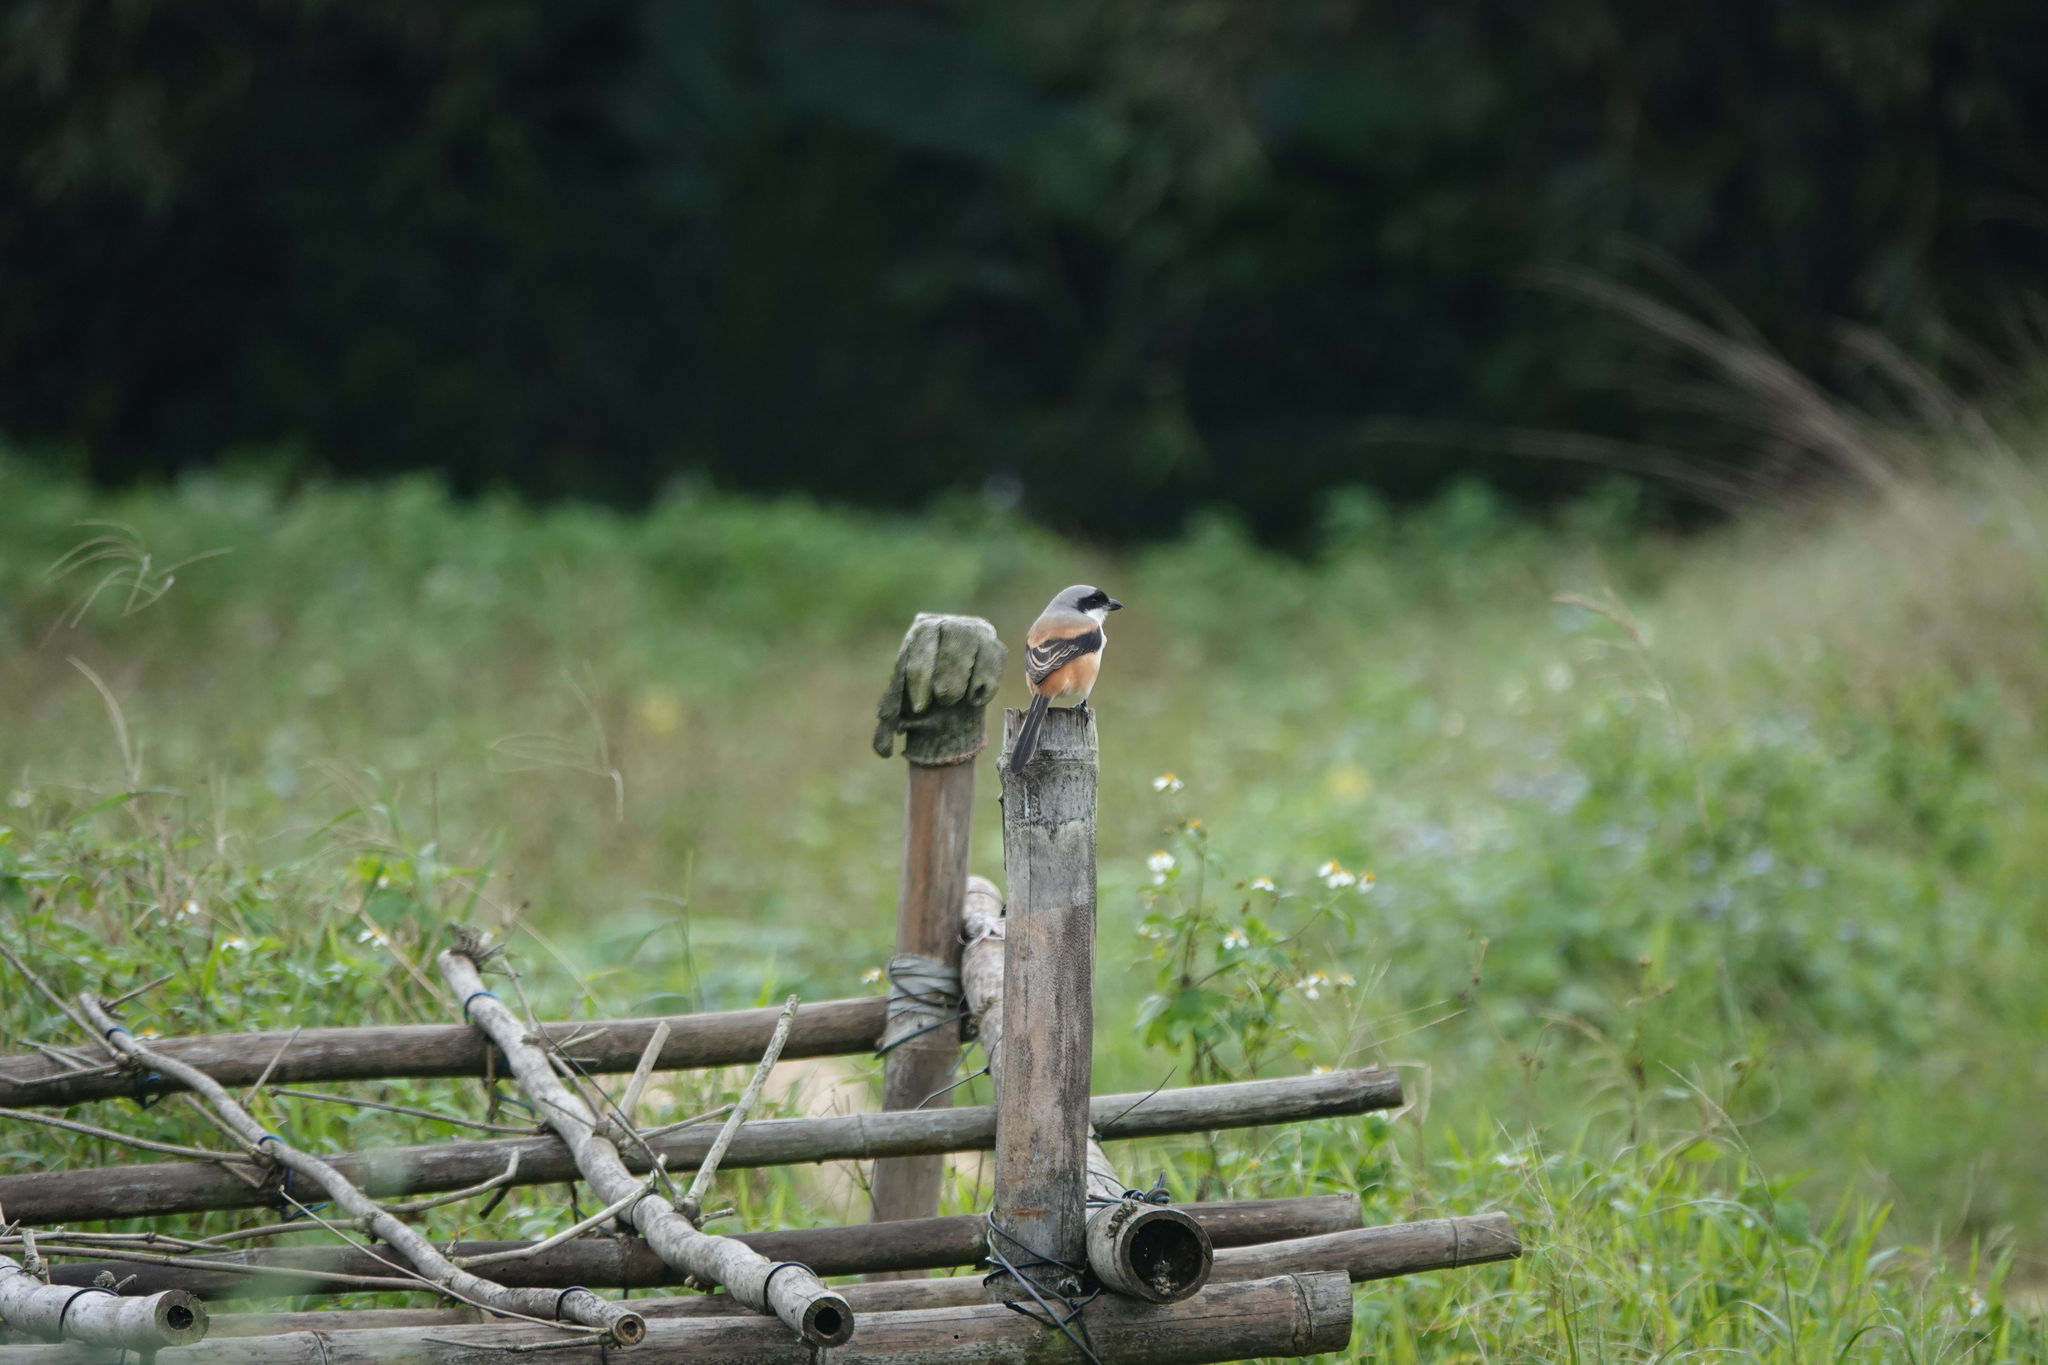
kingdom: Animalia
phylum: Chordata
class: Aves
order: Passeriformes
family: Laniidae
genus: Lanius
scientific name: Lanius schach
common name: Long-tailed shrike
